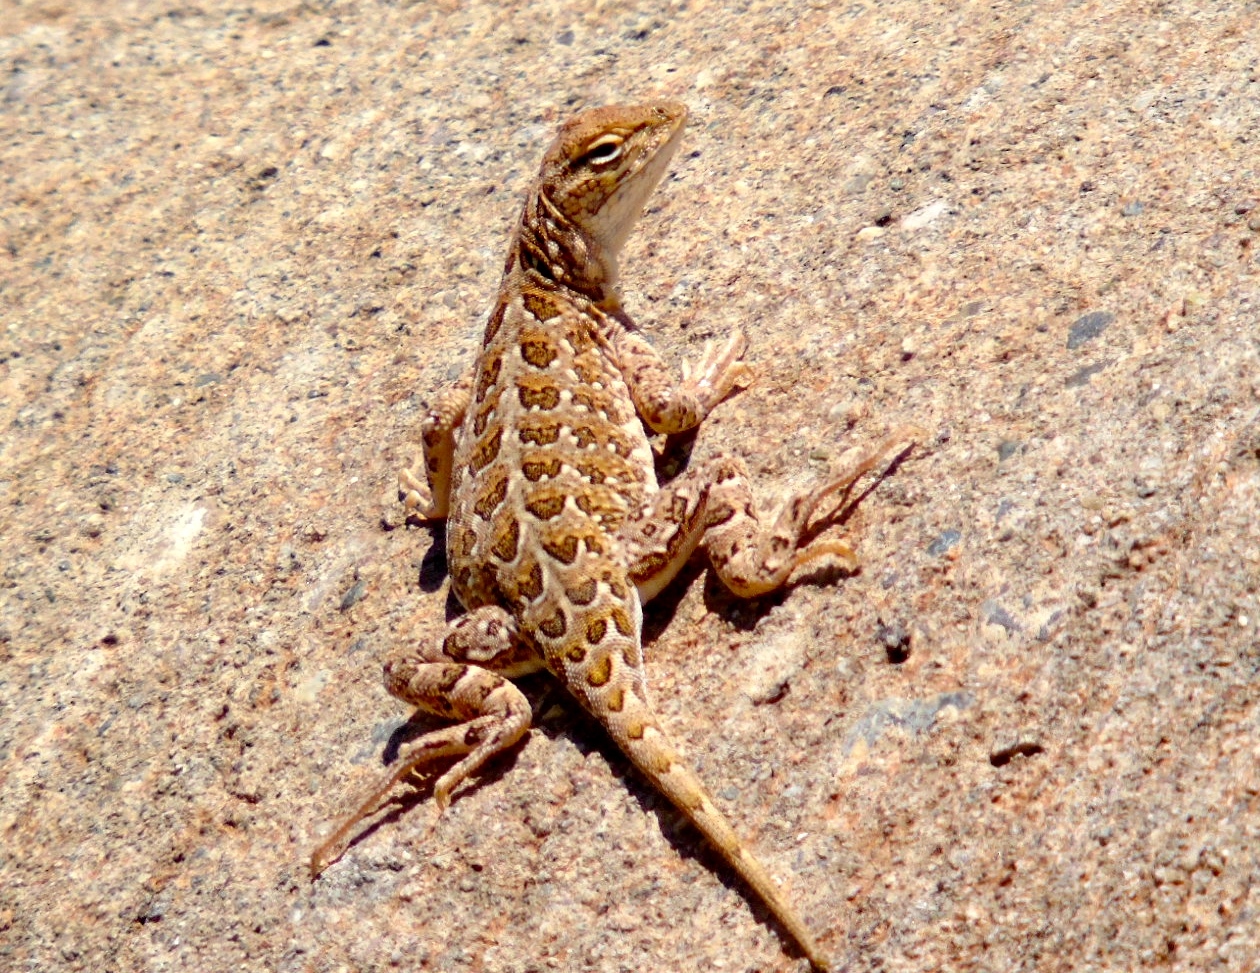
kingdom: Animalia
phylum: Chordata
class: Squamata
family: Phrynosomatidae
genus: Holbrookia
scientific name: Holbrookia elegans
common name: Elegant earless lizard
